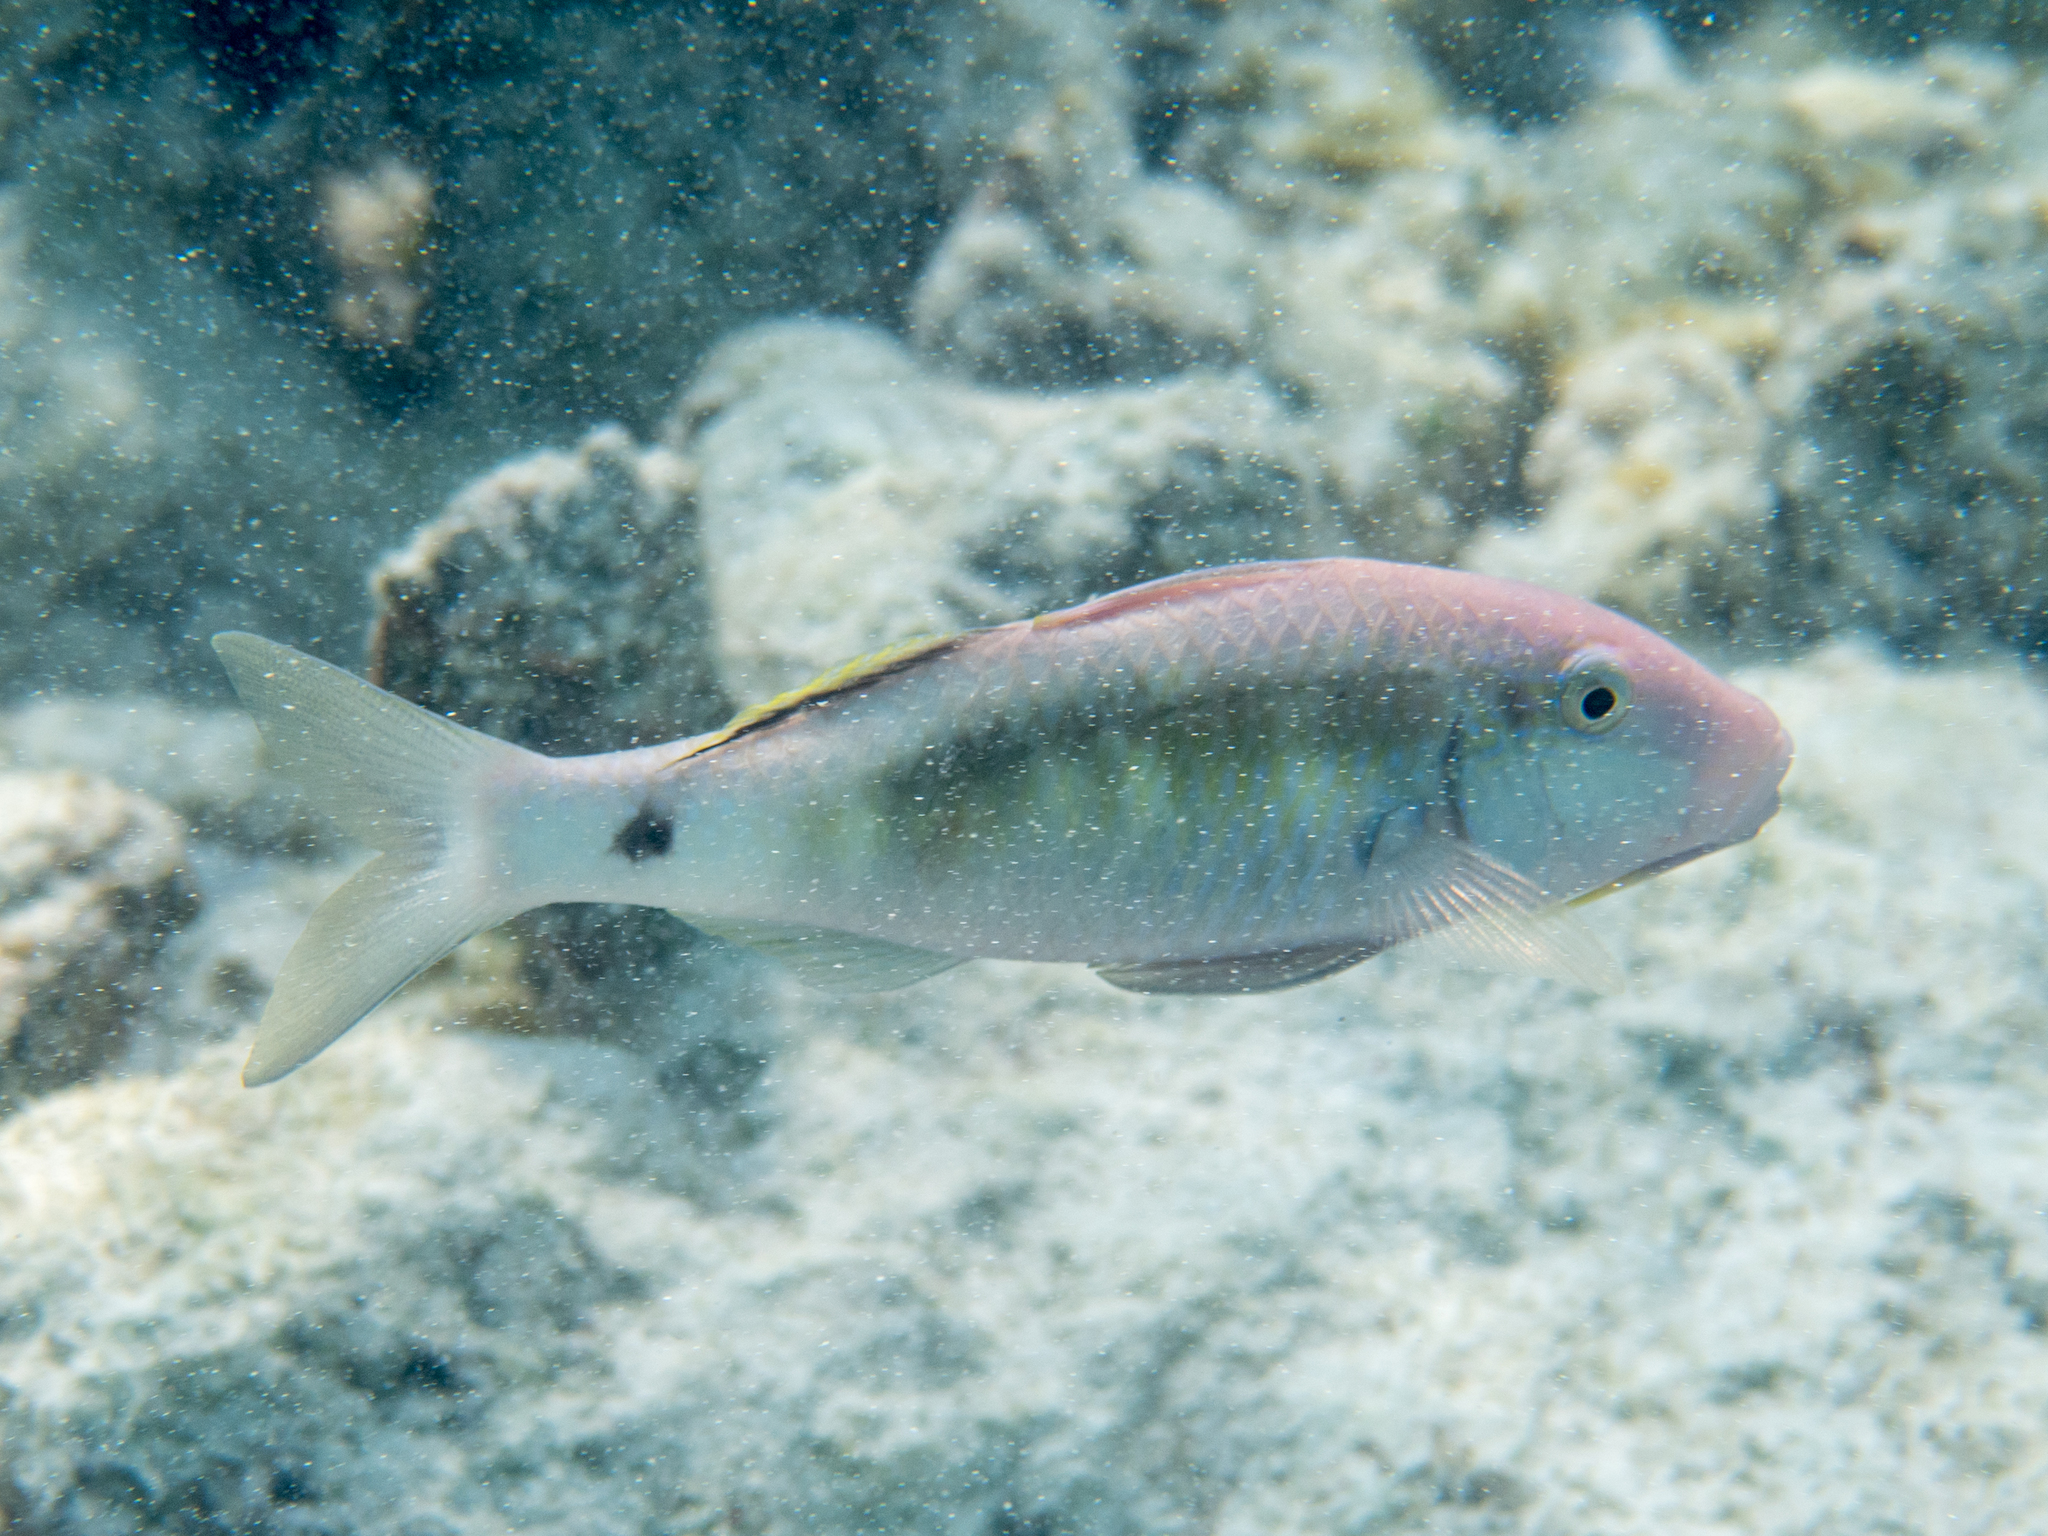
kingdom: Animalia
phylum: Chordata
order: Perciformes
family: Mullidae
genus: Parupeneus
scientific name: Parupeneus macronemus
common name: Long-barbel goatfish
